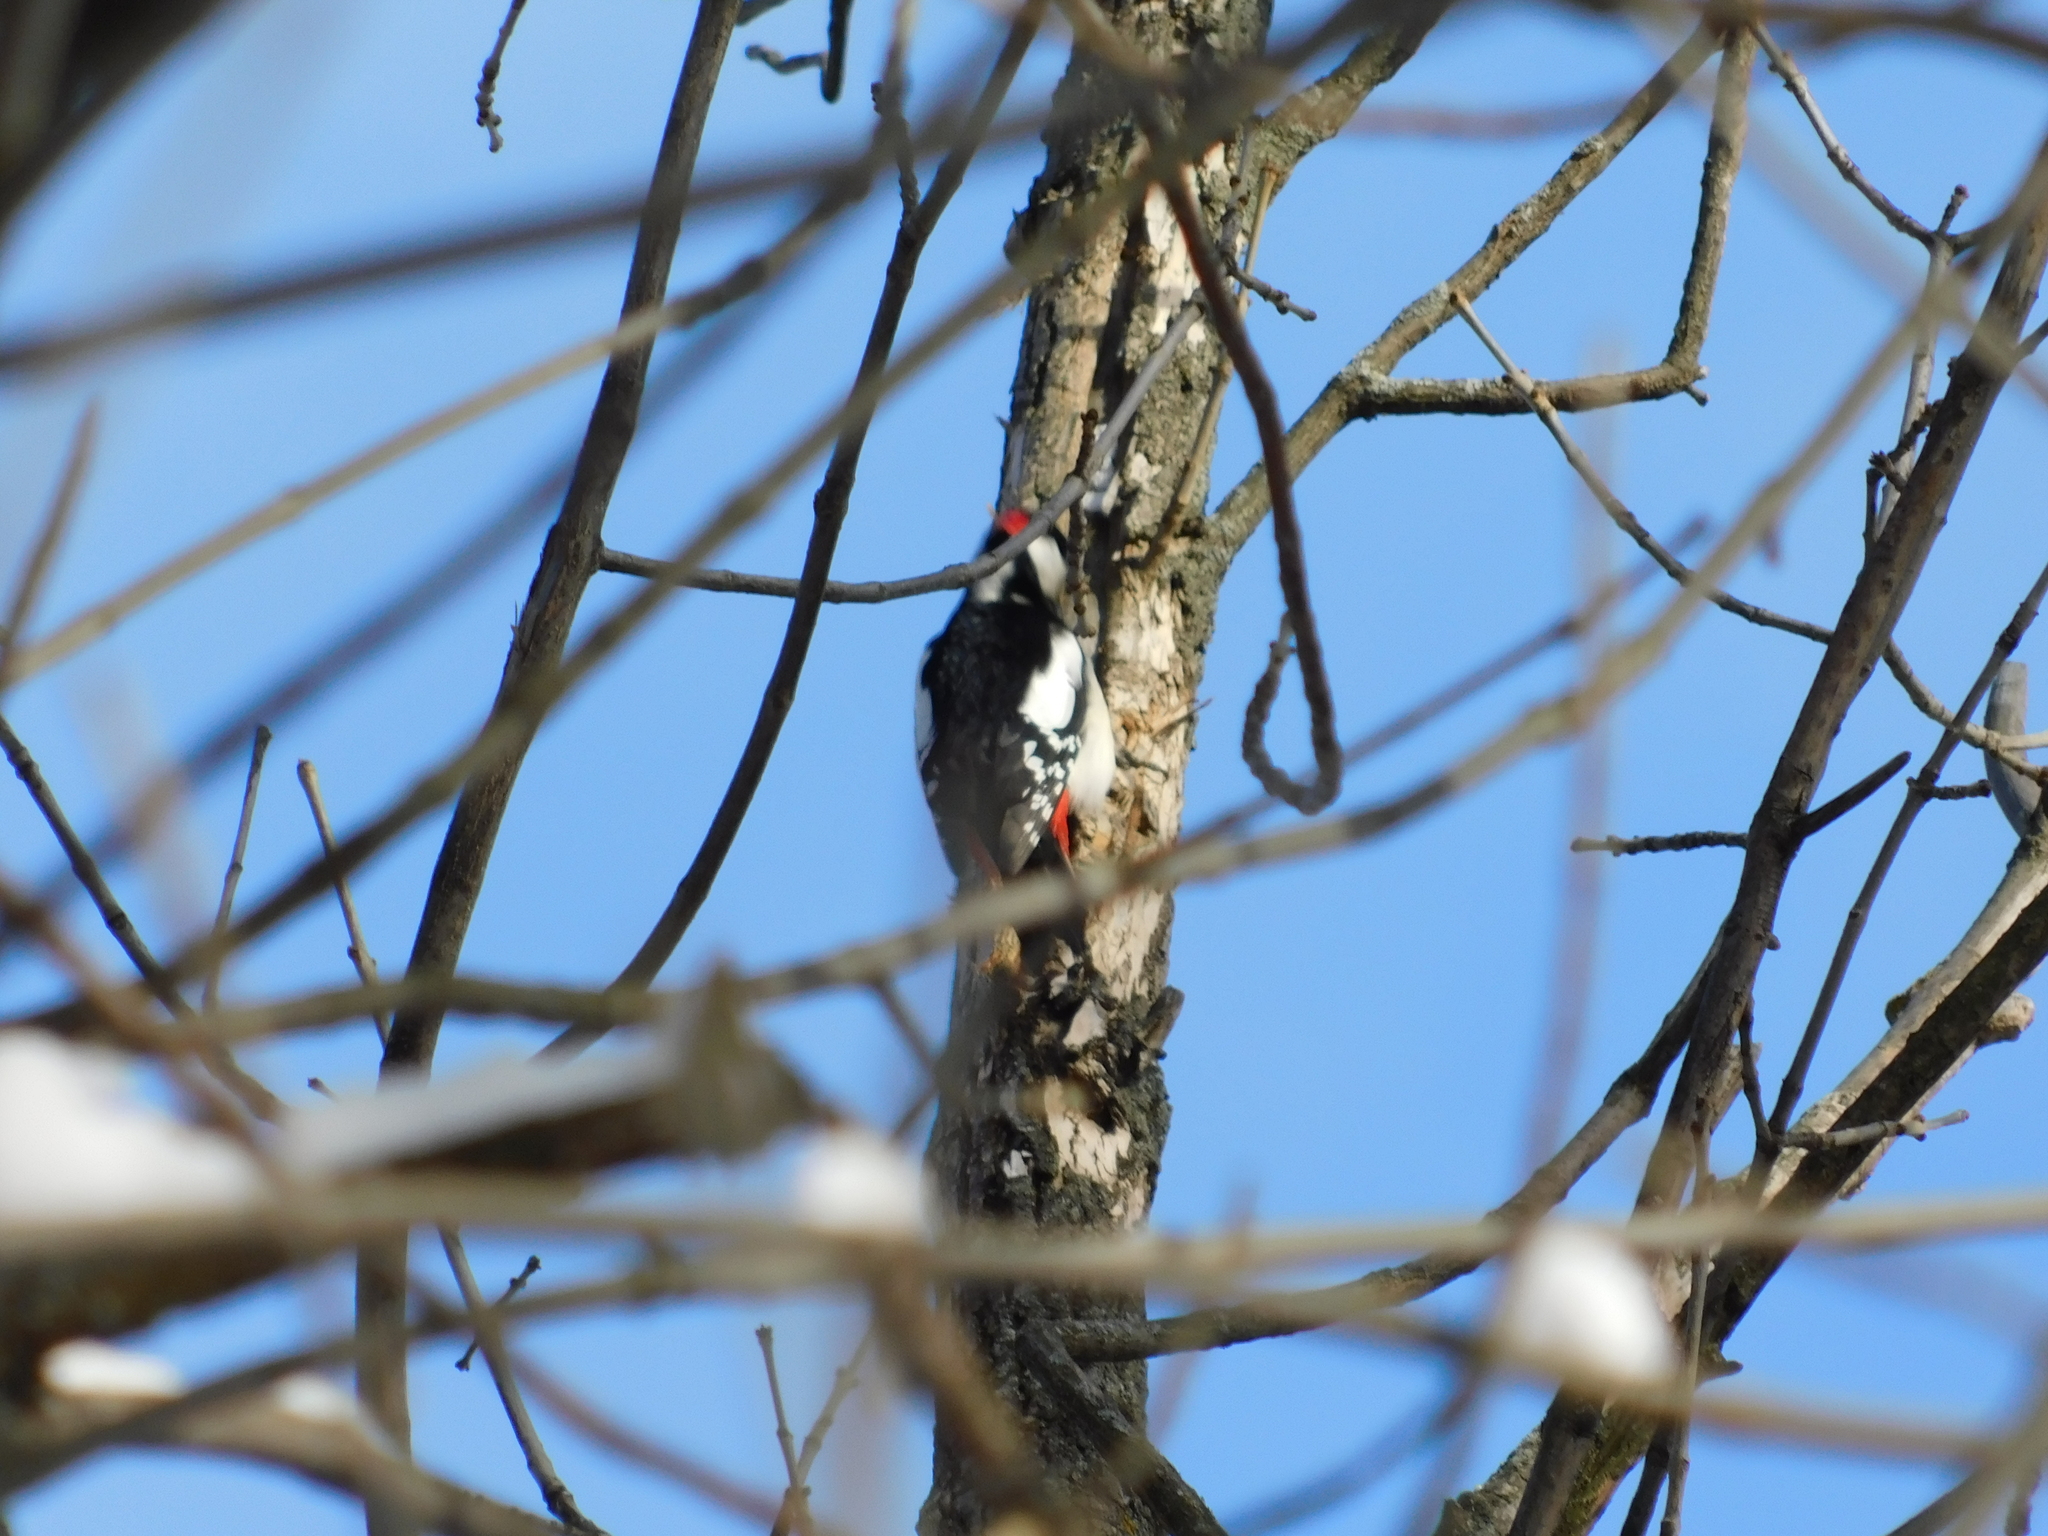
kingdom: Animalia
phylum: Chordata
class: Aves
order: Piciformes
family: Picidae
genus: Dendrocopos
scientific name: Dendrocopos major
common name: Great spotted woodpecker
